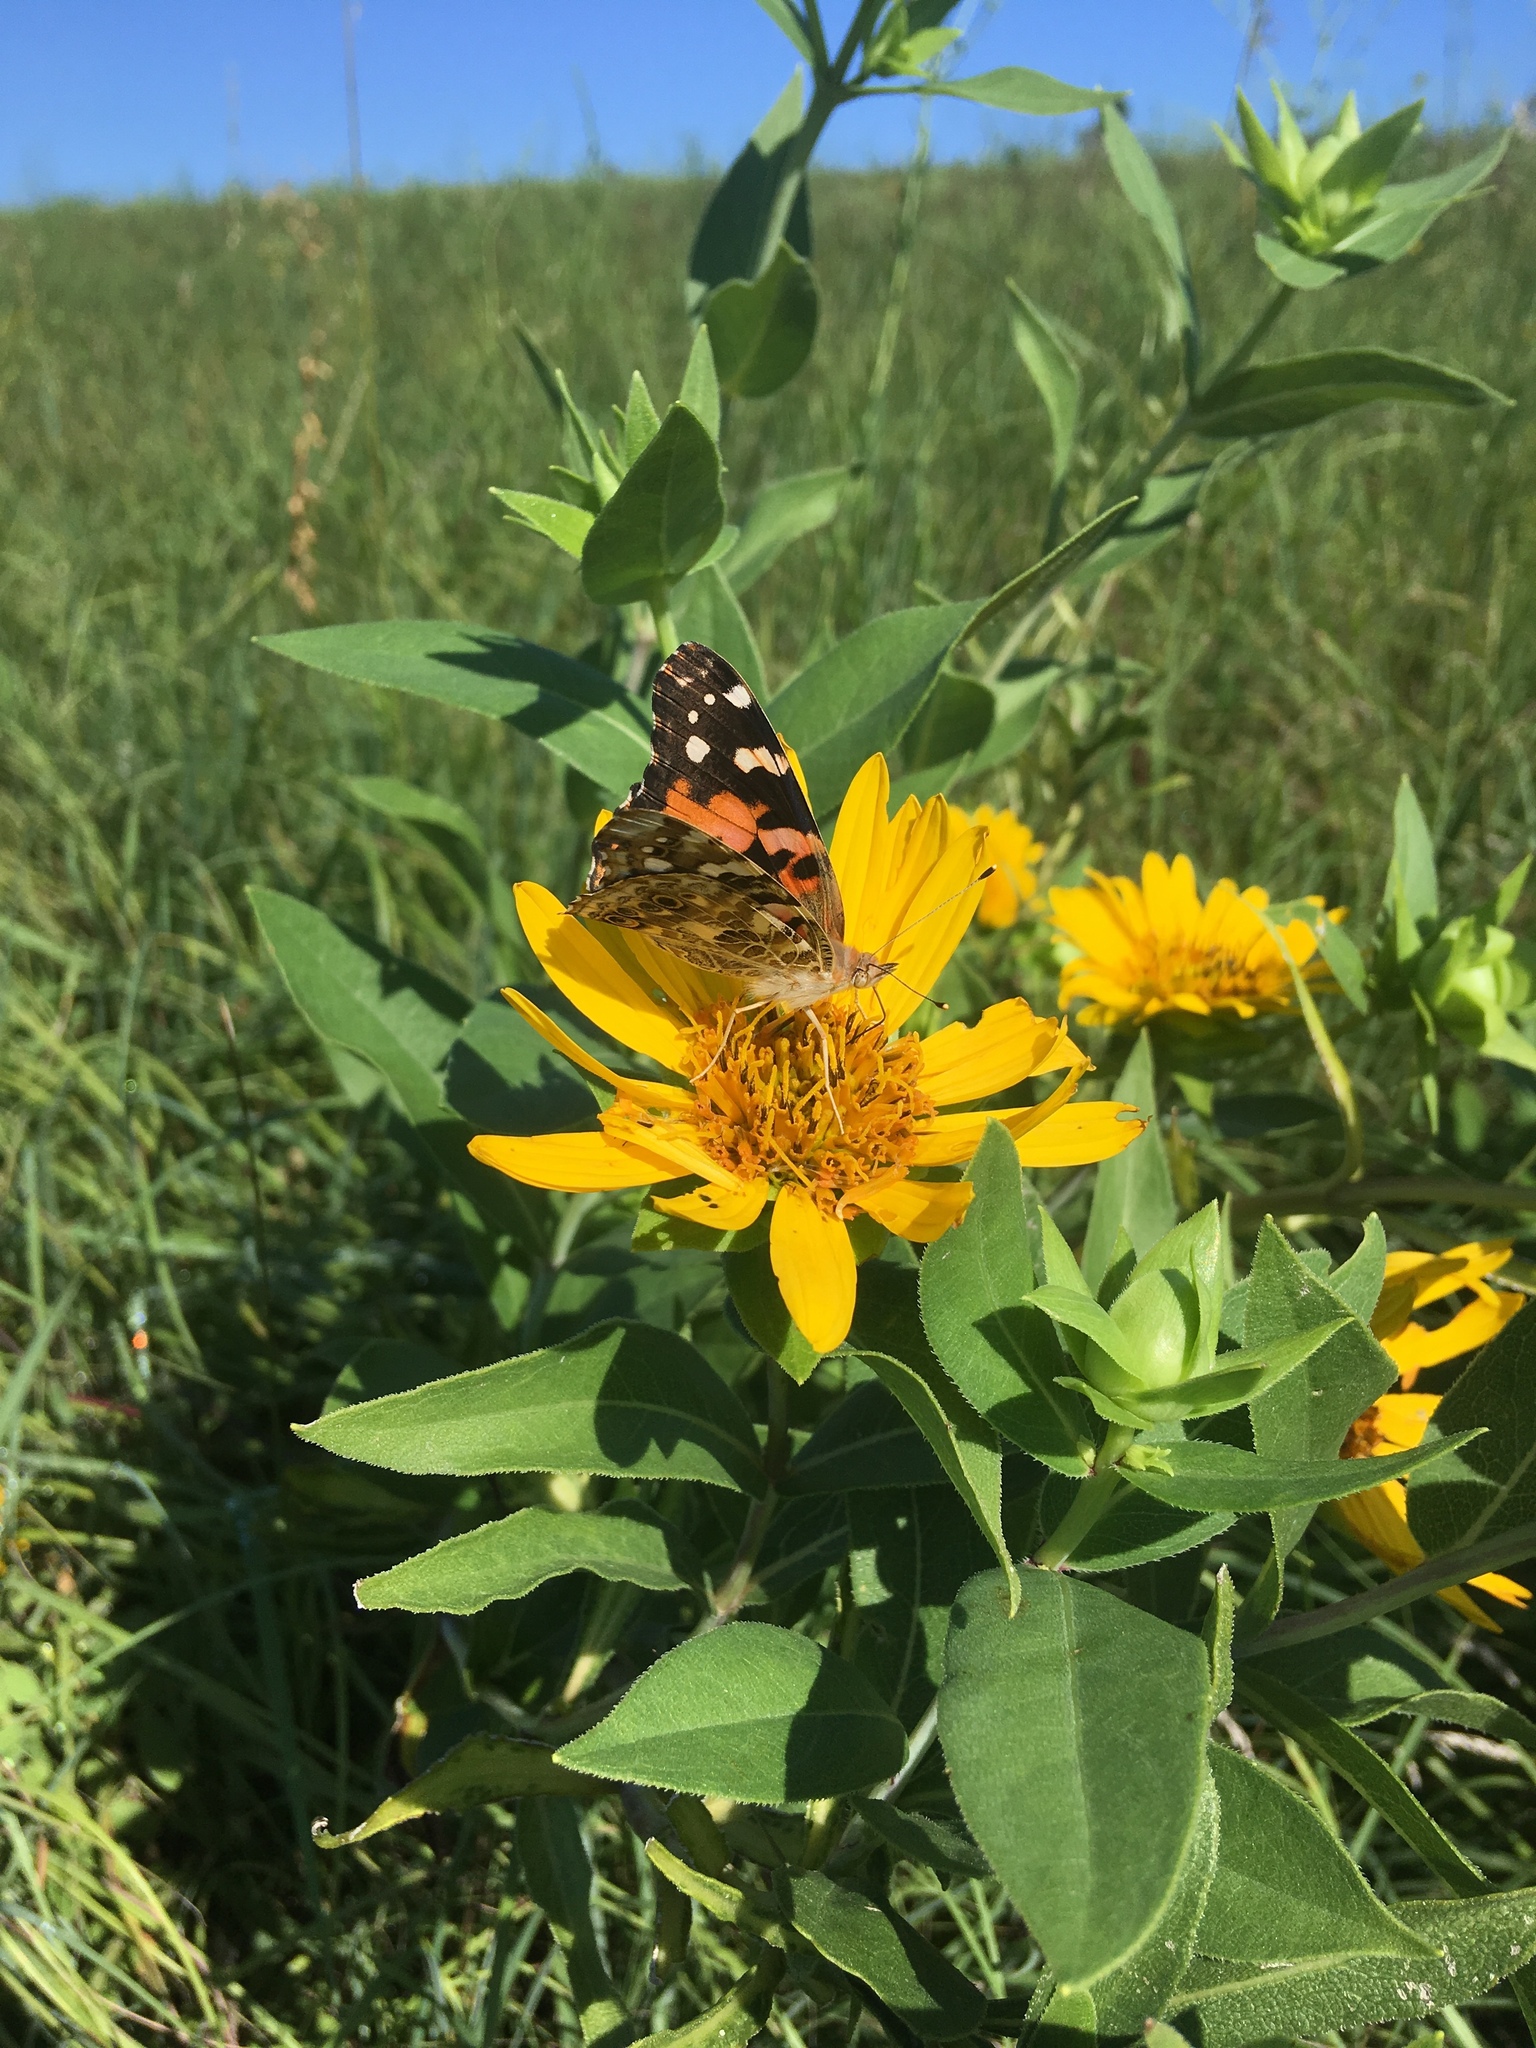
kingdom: Animalia
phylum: Arthropoda
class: Insecta
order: Lepidoptera
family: Nymphalidae
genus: Vanessa
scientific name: Vanessa cardui
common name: Painted lady
